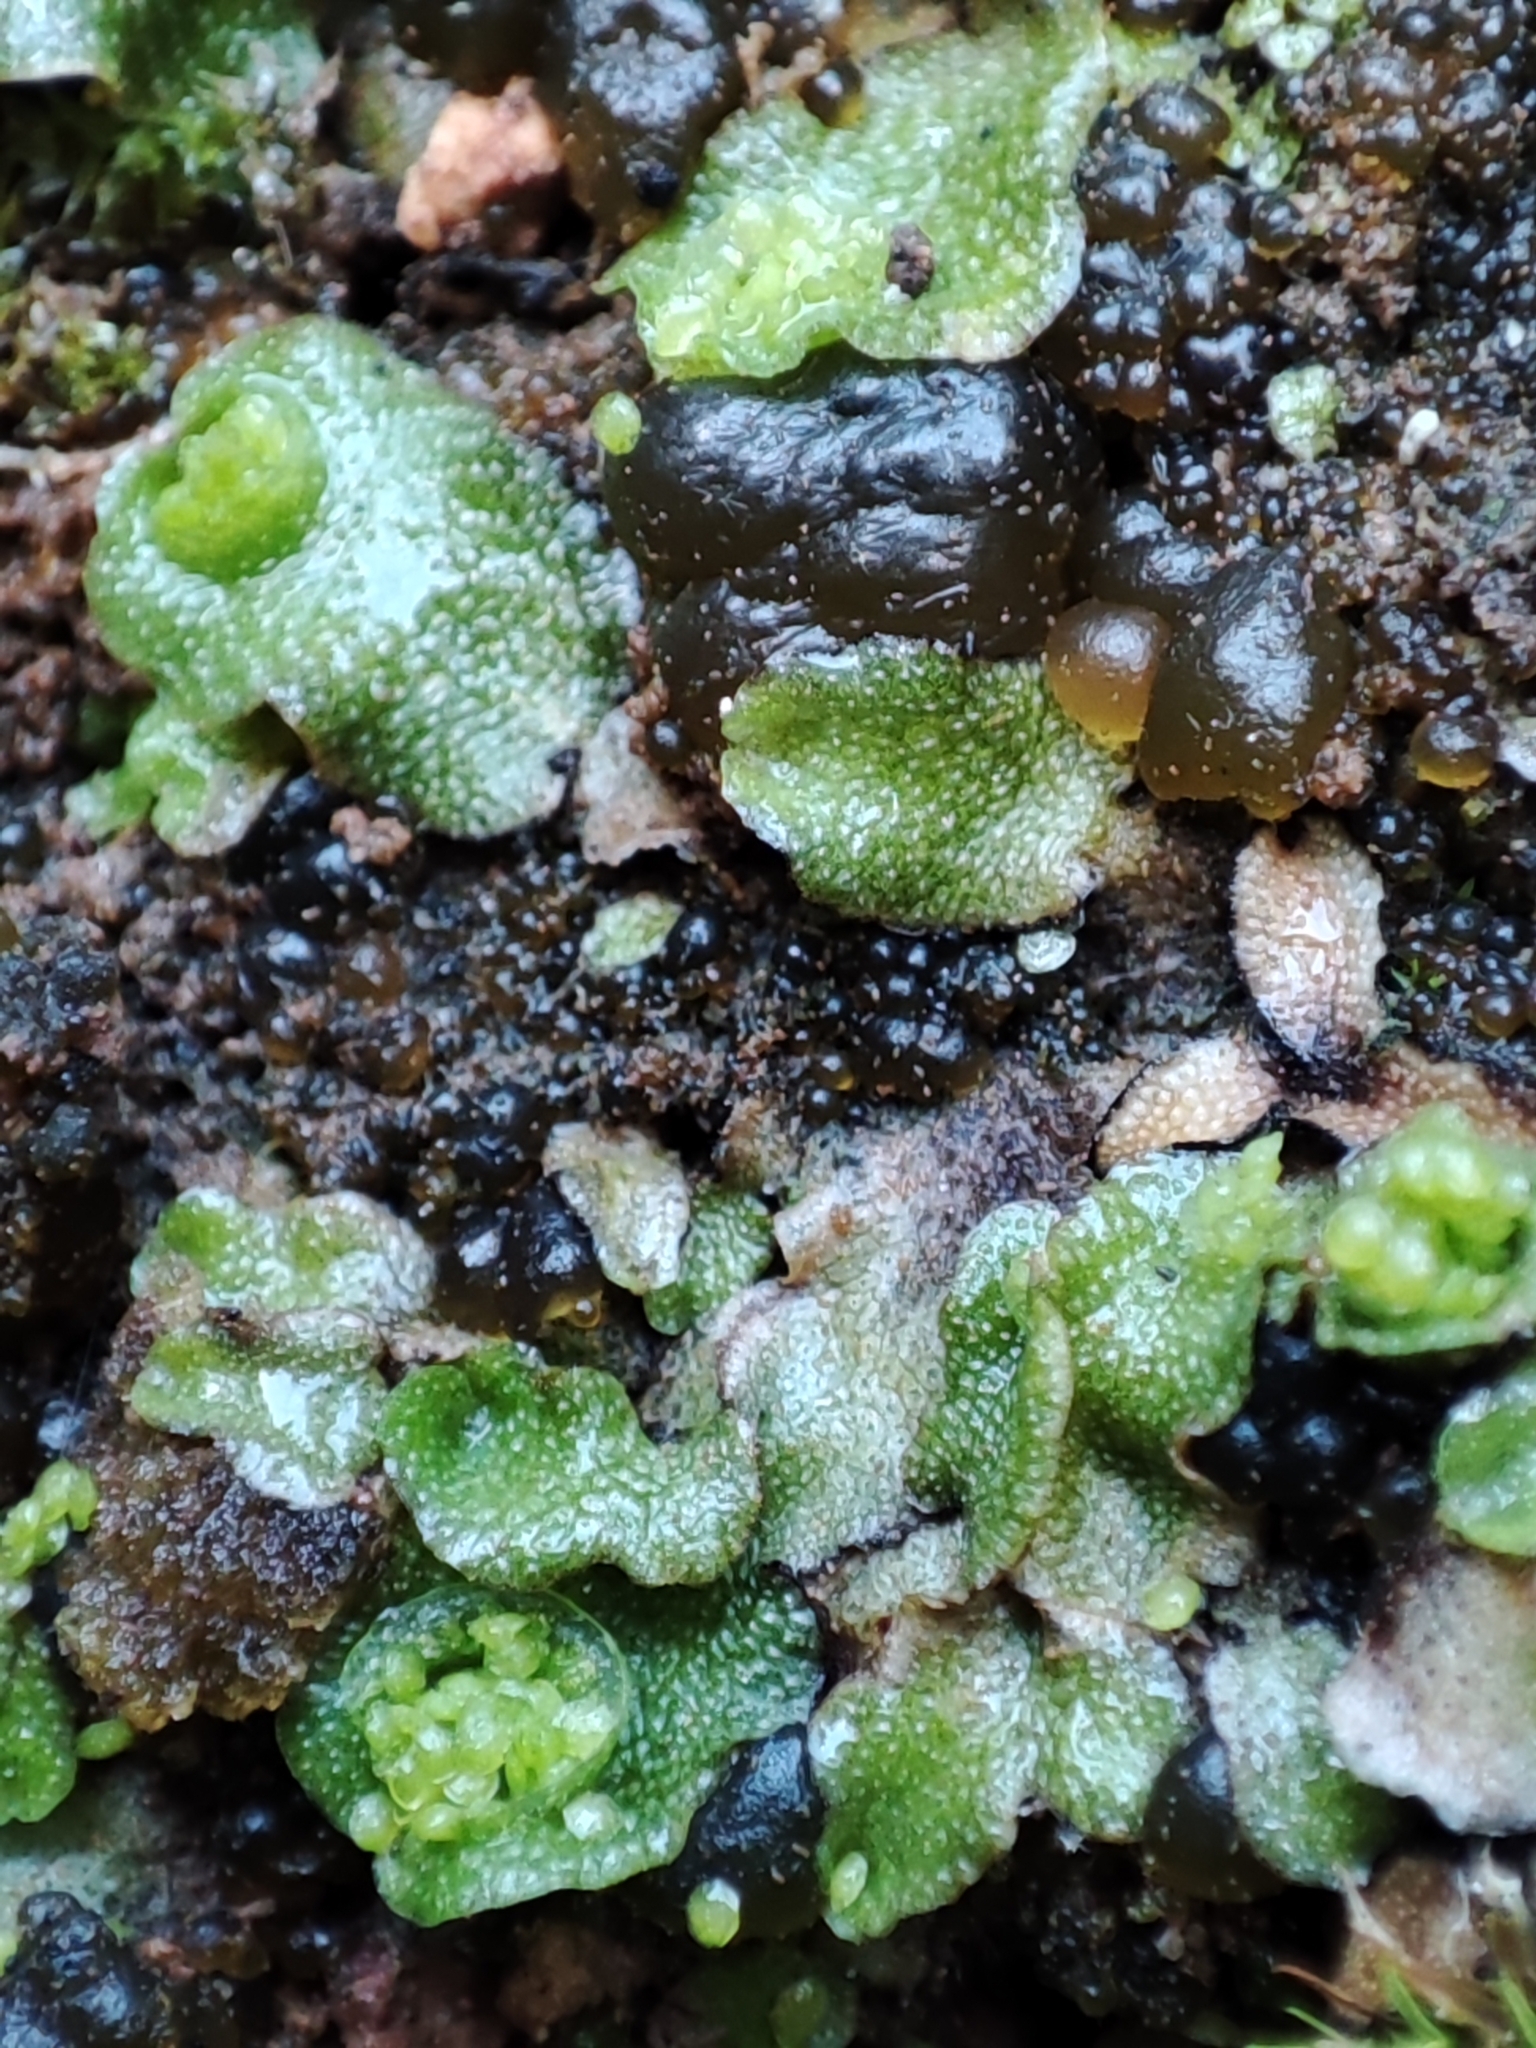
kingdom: Plantae
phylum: Marchantiophyta
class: Marchantiopsida
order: Lunulariales
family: Lunulariaceae
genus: Lunularia
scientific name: Lunularia cruciata
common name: Crescent-cup liverwort
